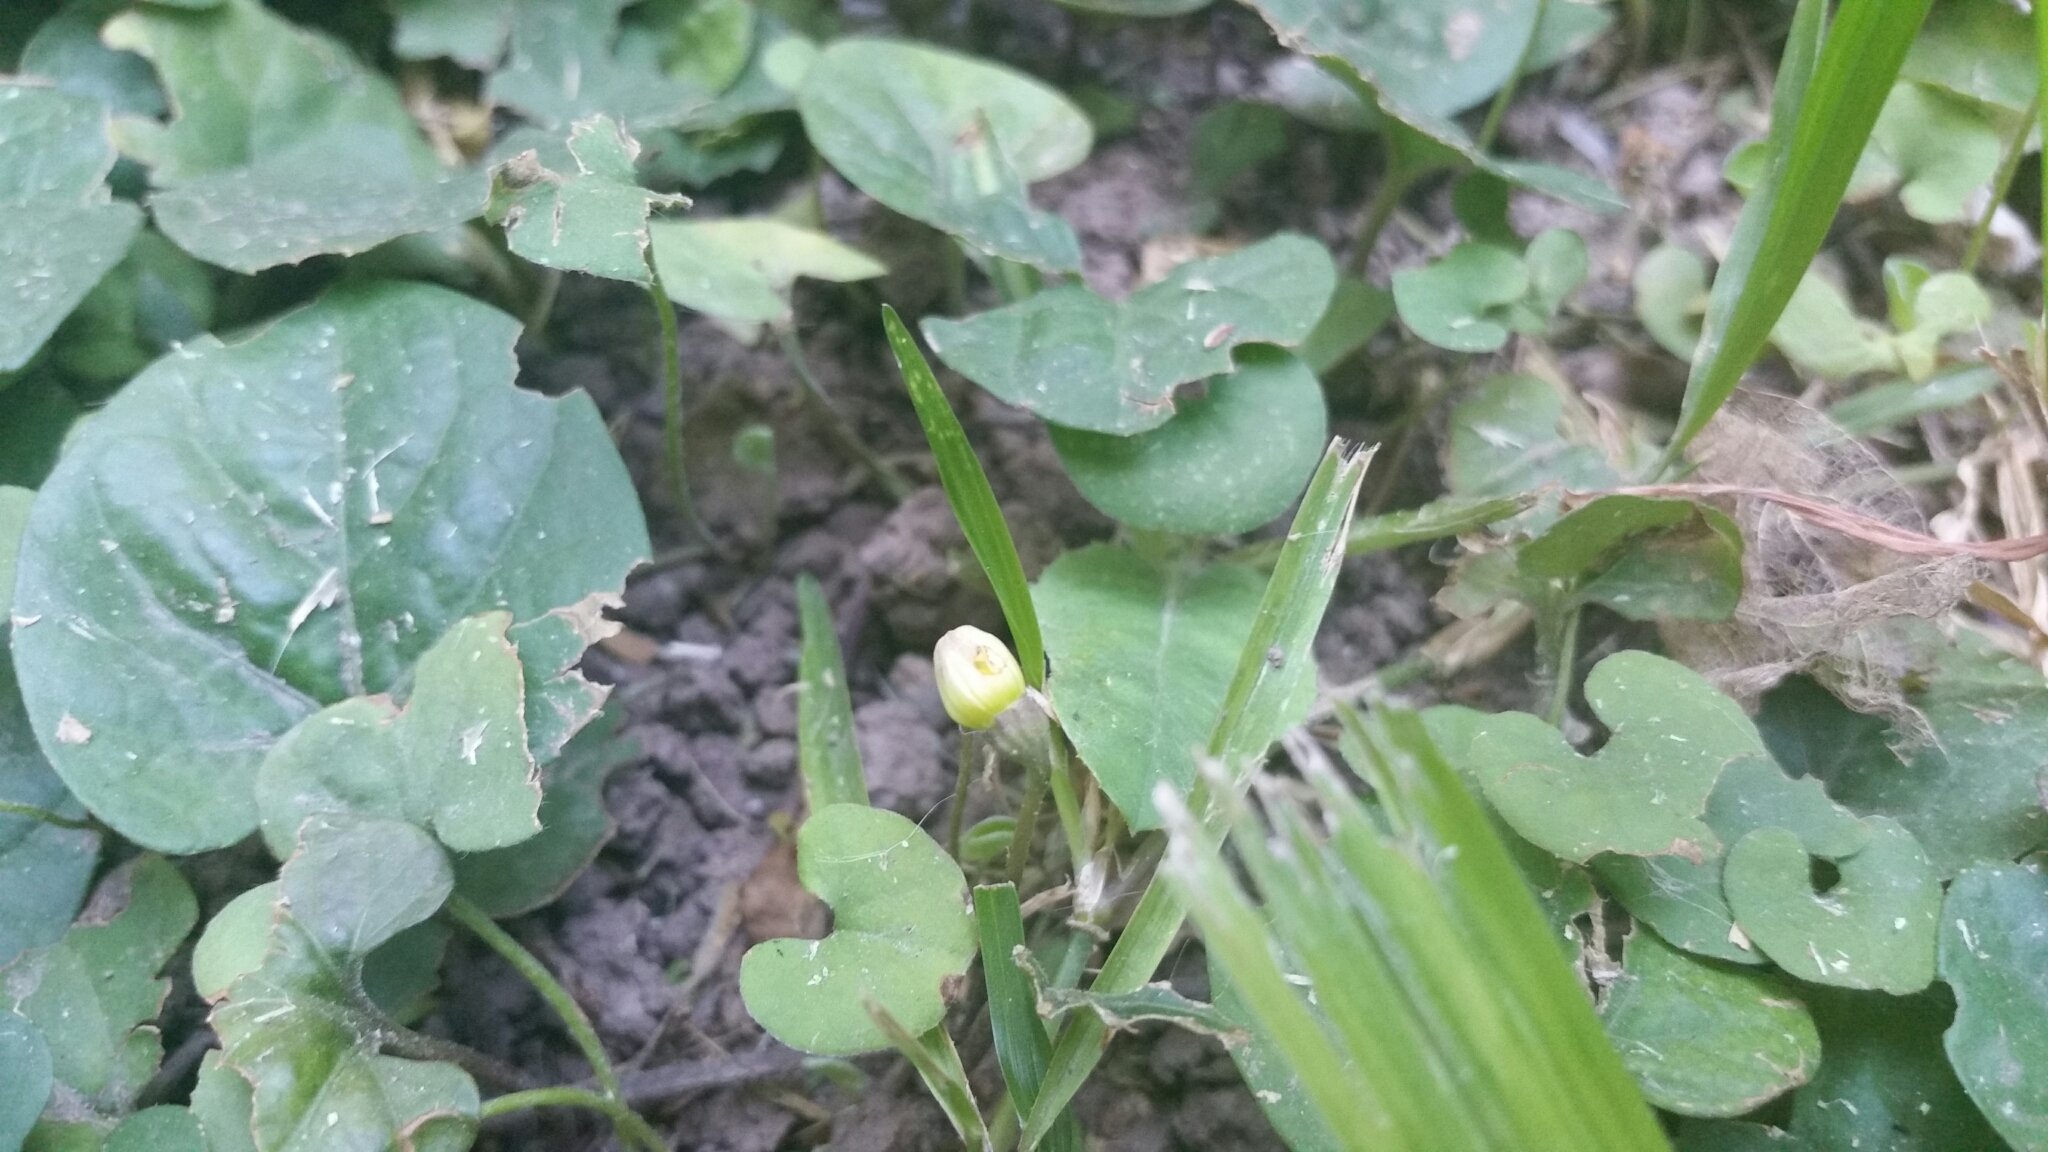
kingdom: Plantae
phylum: Tracheophyta
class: Magnoliopsida
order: Solanales
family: Solanaceae
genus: Lycianthes
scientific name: Lycianthes repens
